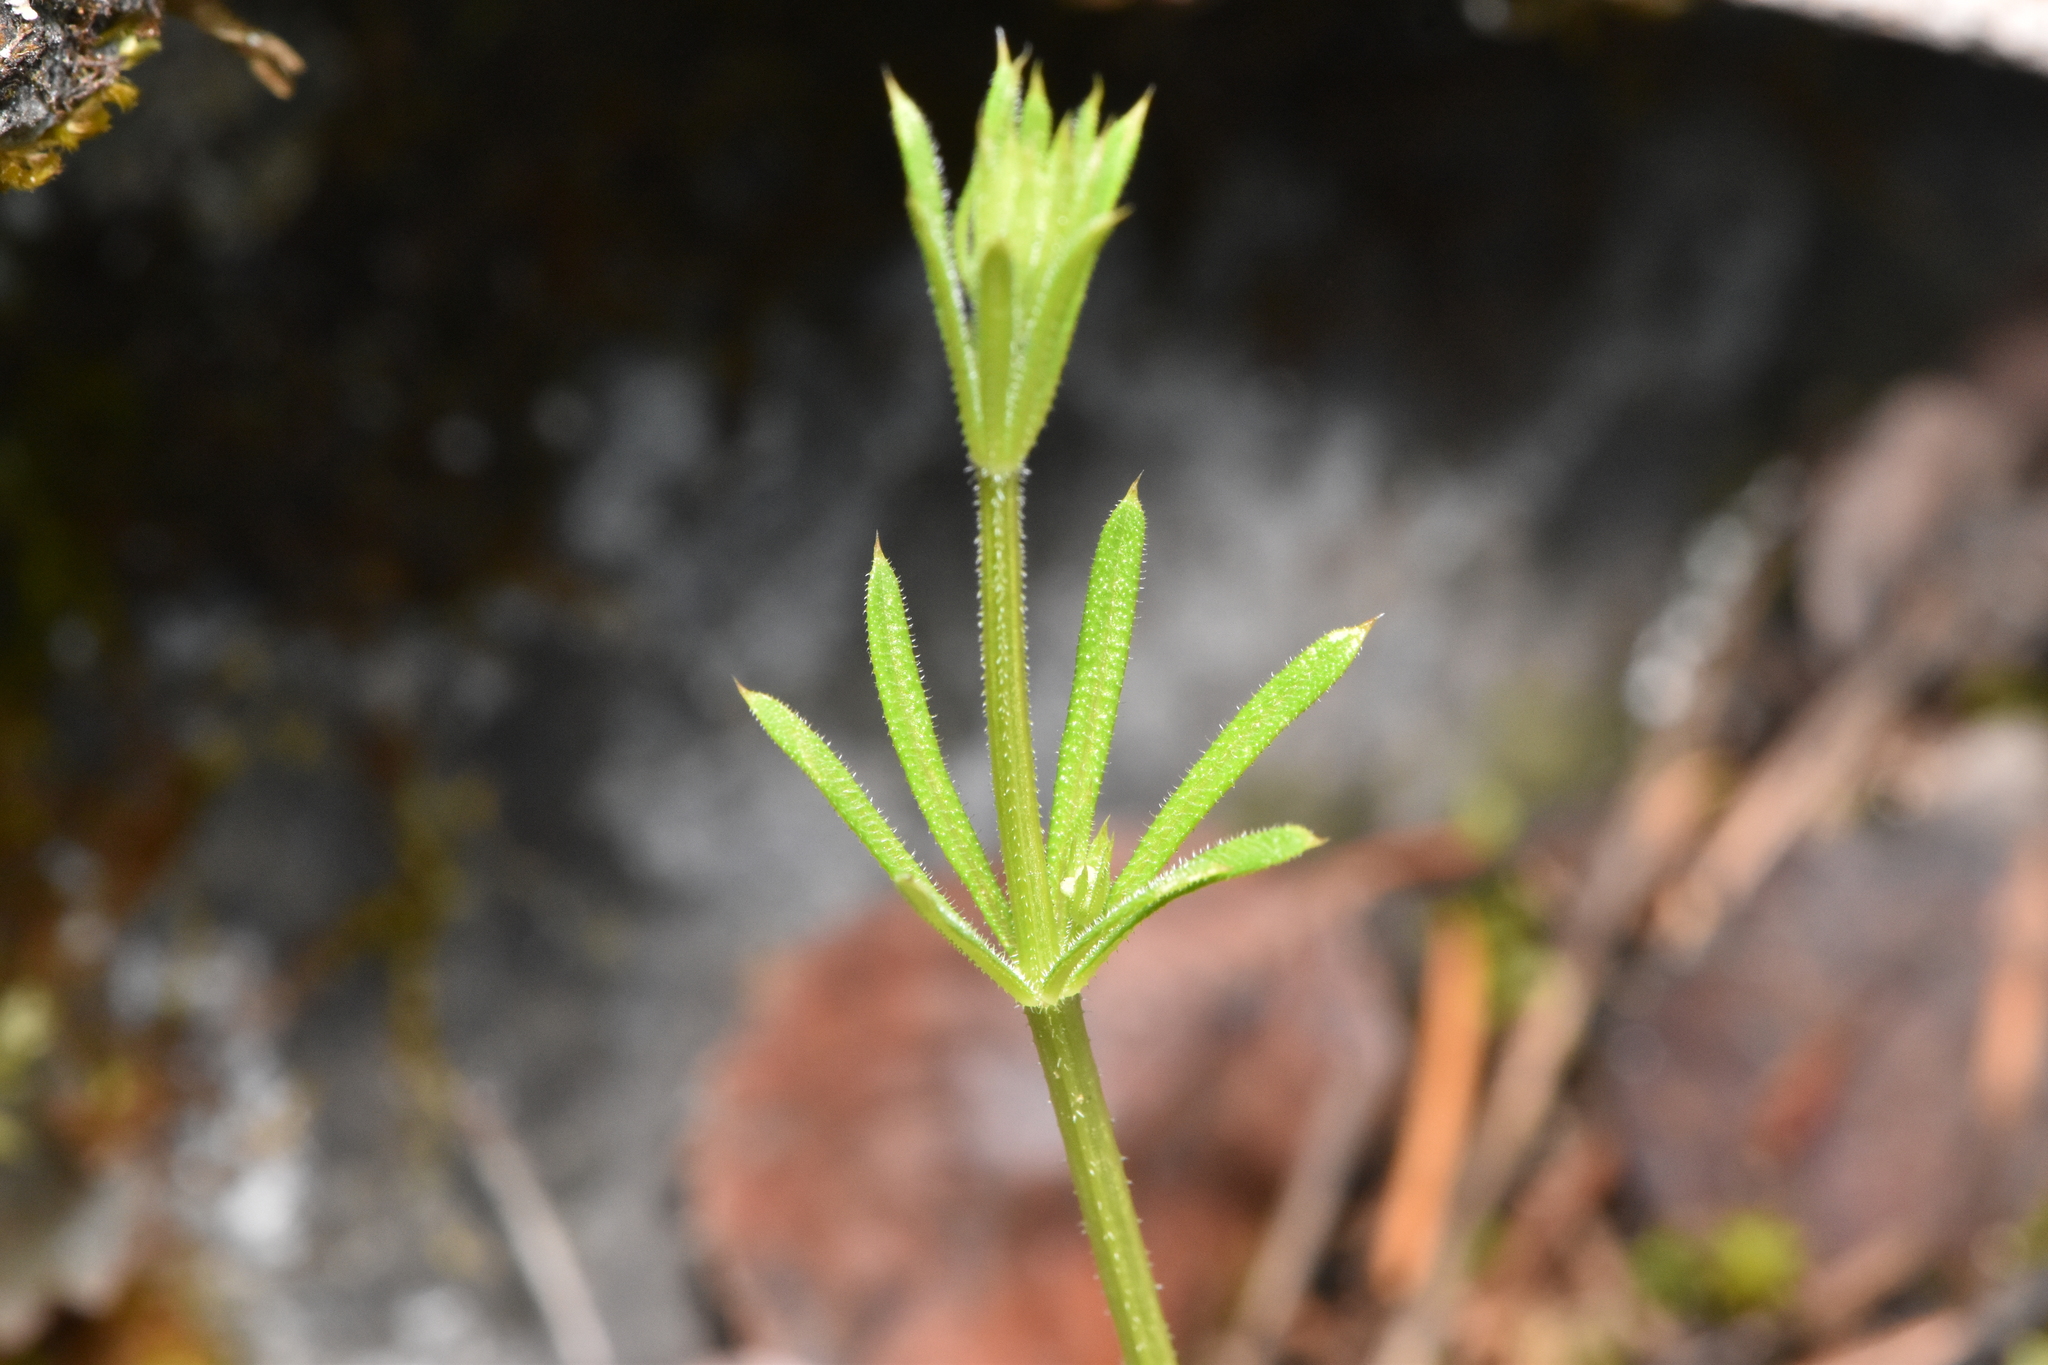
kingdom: Plantae
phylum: Tracheophyta
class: Magnoliopsida
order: Gentianales
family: Rubiaceae
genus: Galium
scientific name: Galium aparine
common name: Cleavers
